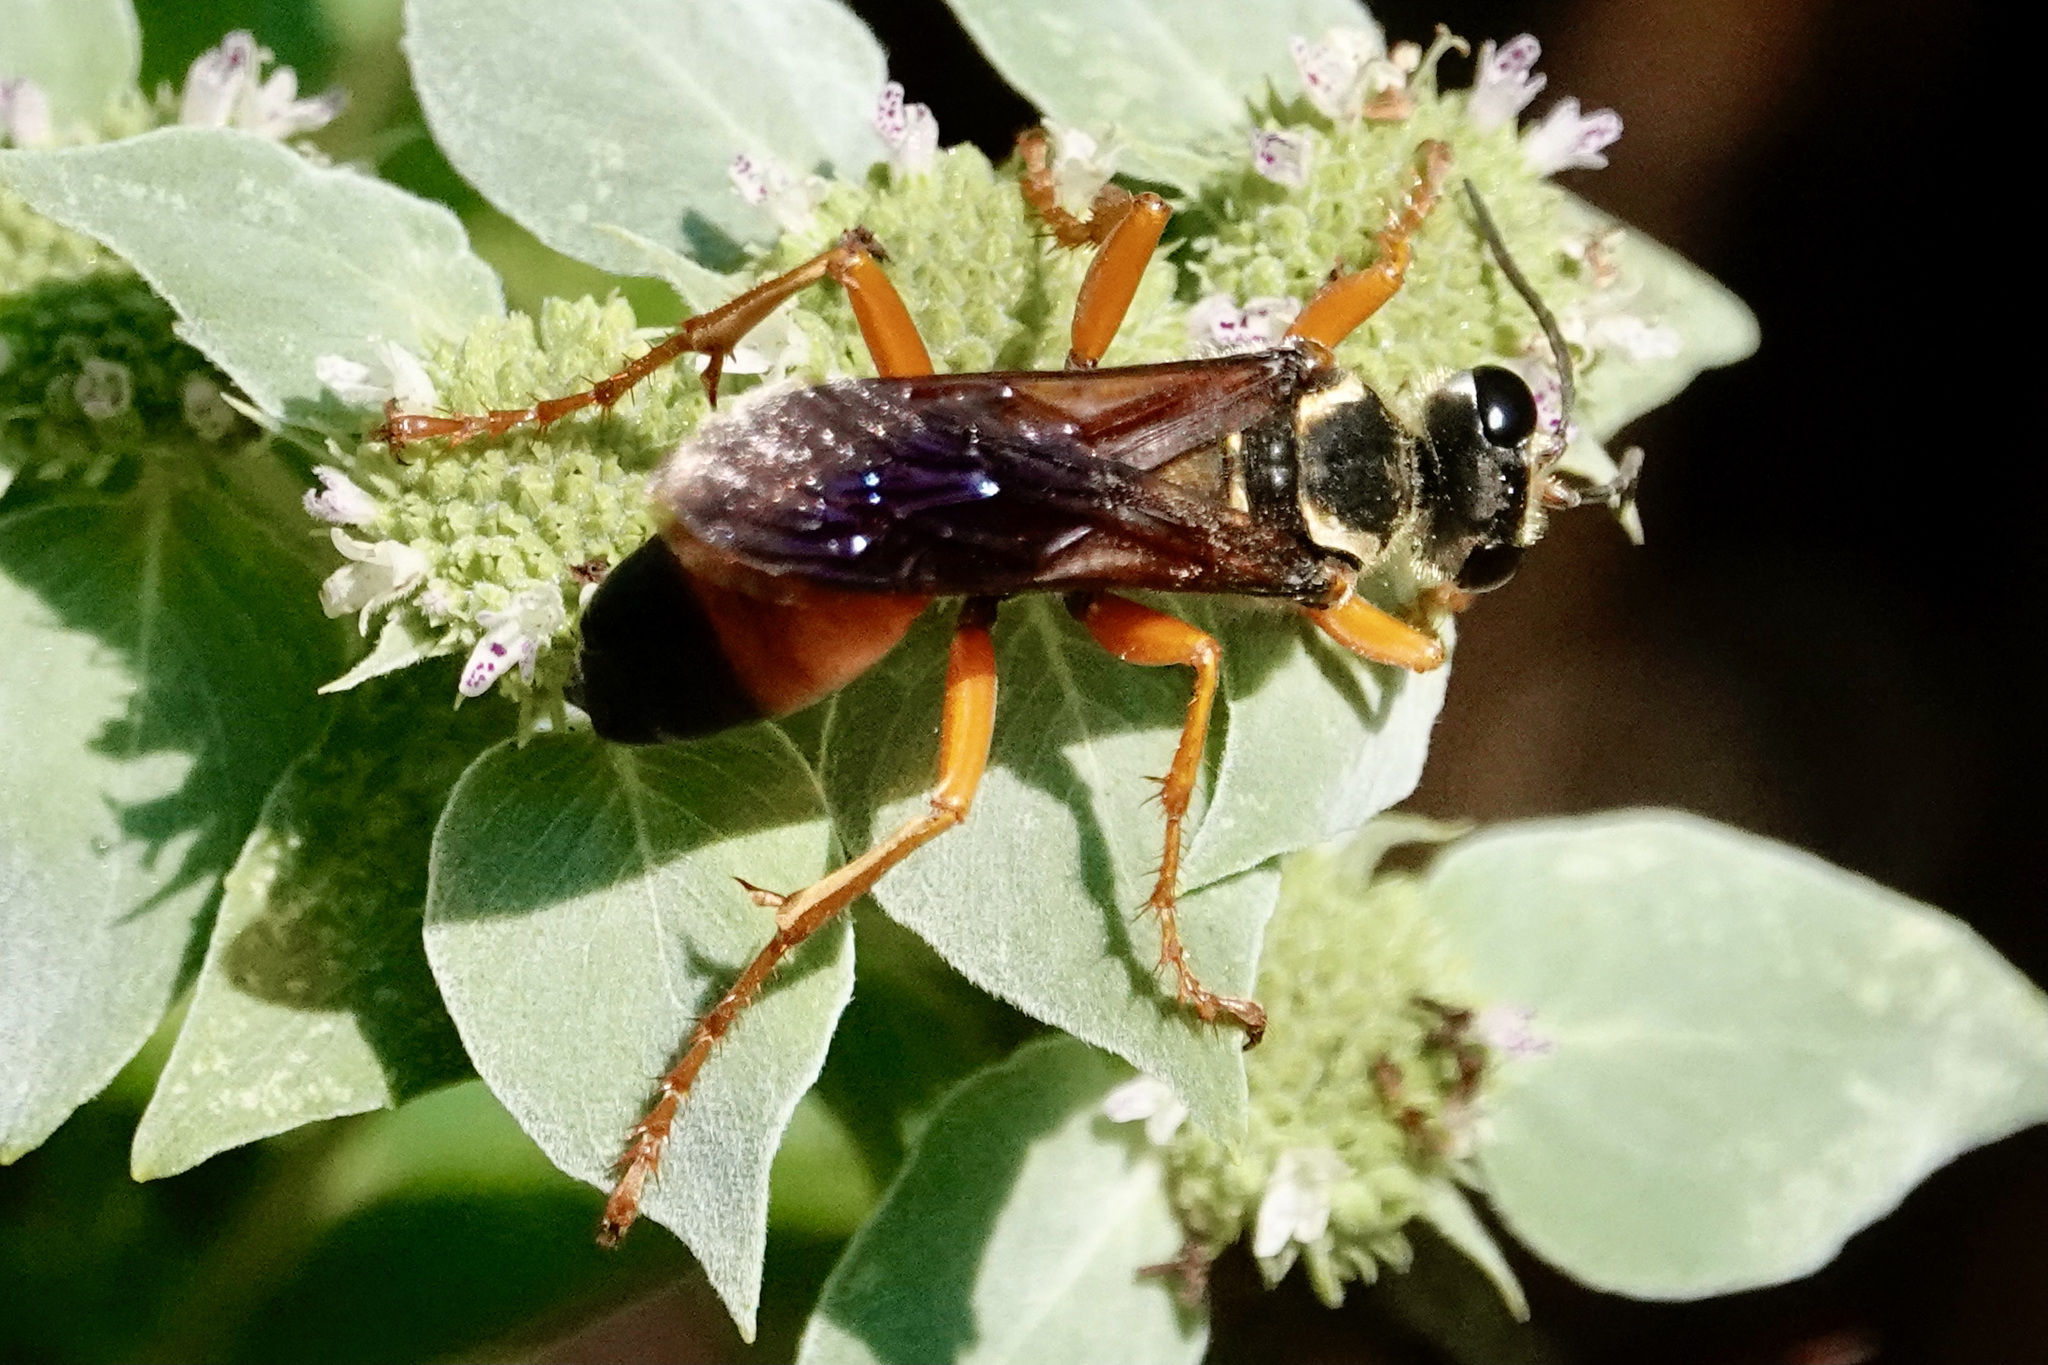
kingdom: Animalia
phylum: Arthropoda
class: Insecta
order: Hymenoptera
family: Sphecidae
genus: Sphex
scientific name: Sphex ichneumoneus
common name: Great golden digger wasp
